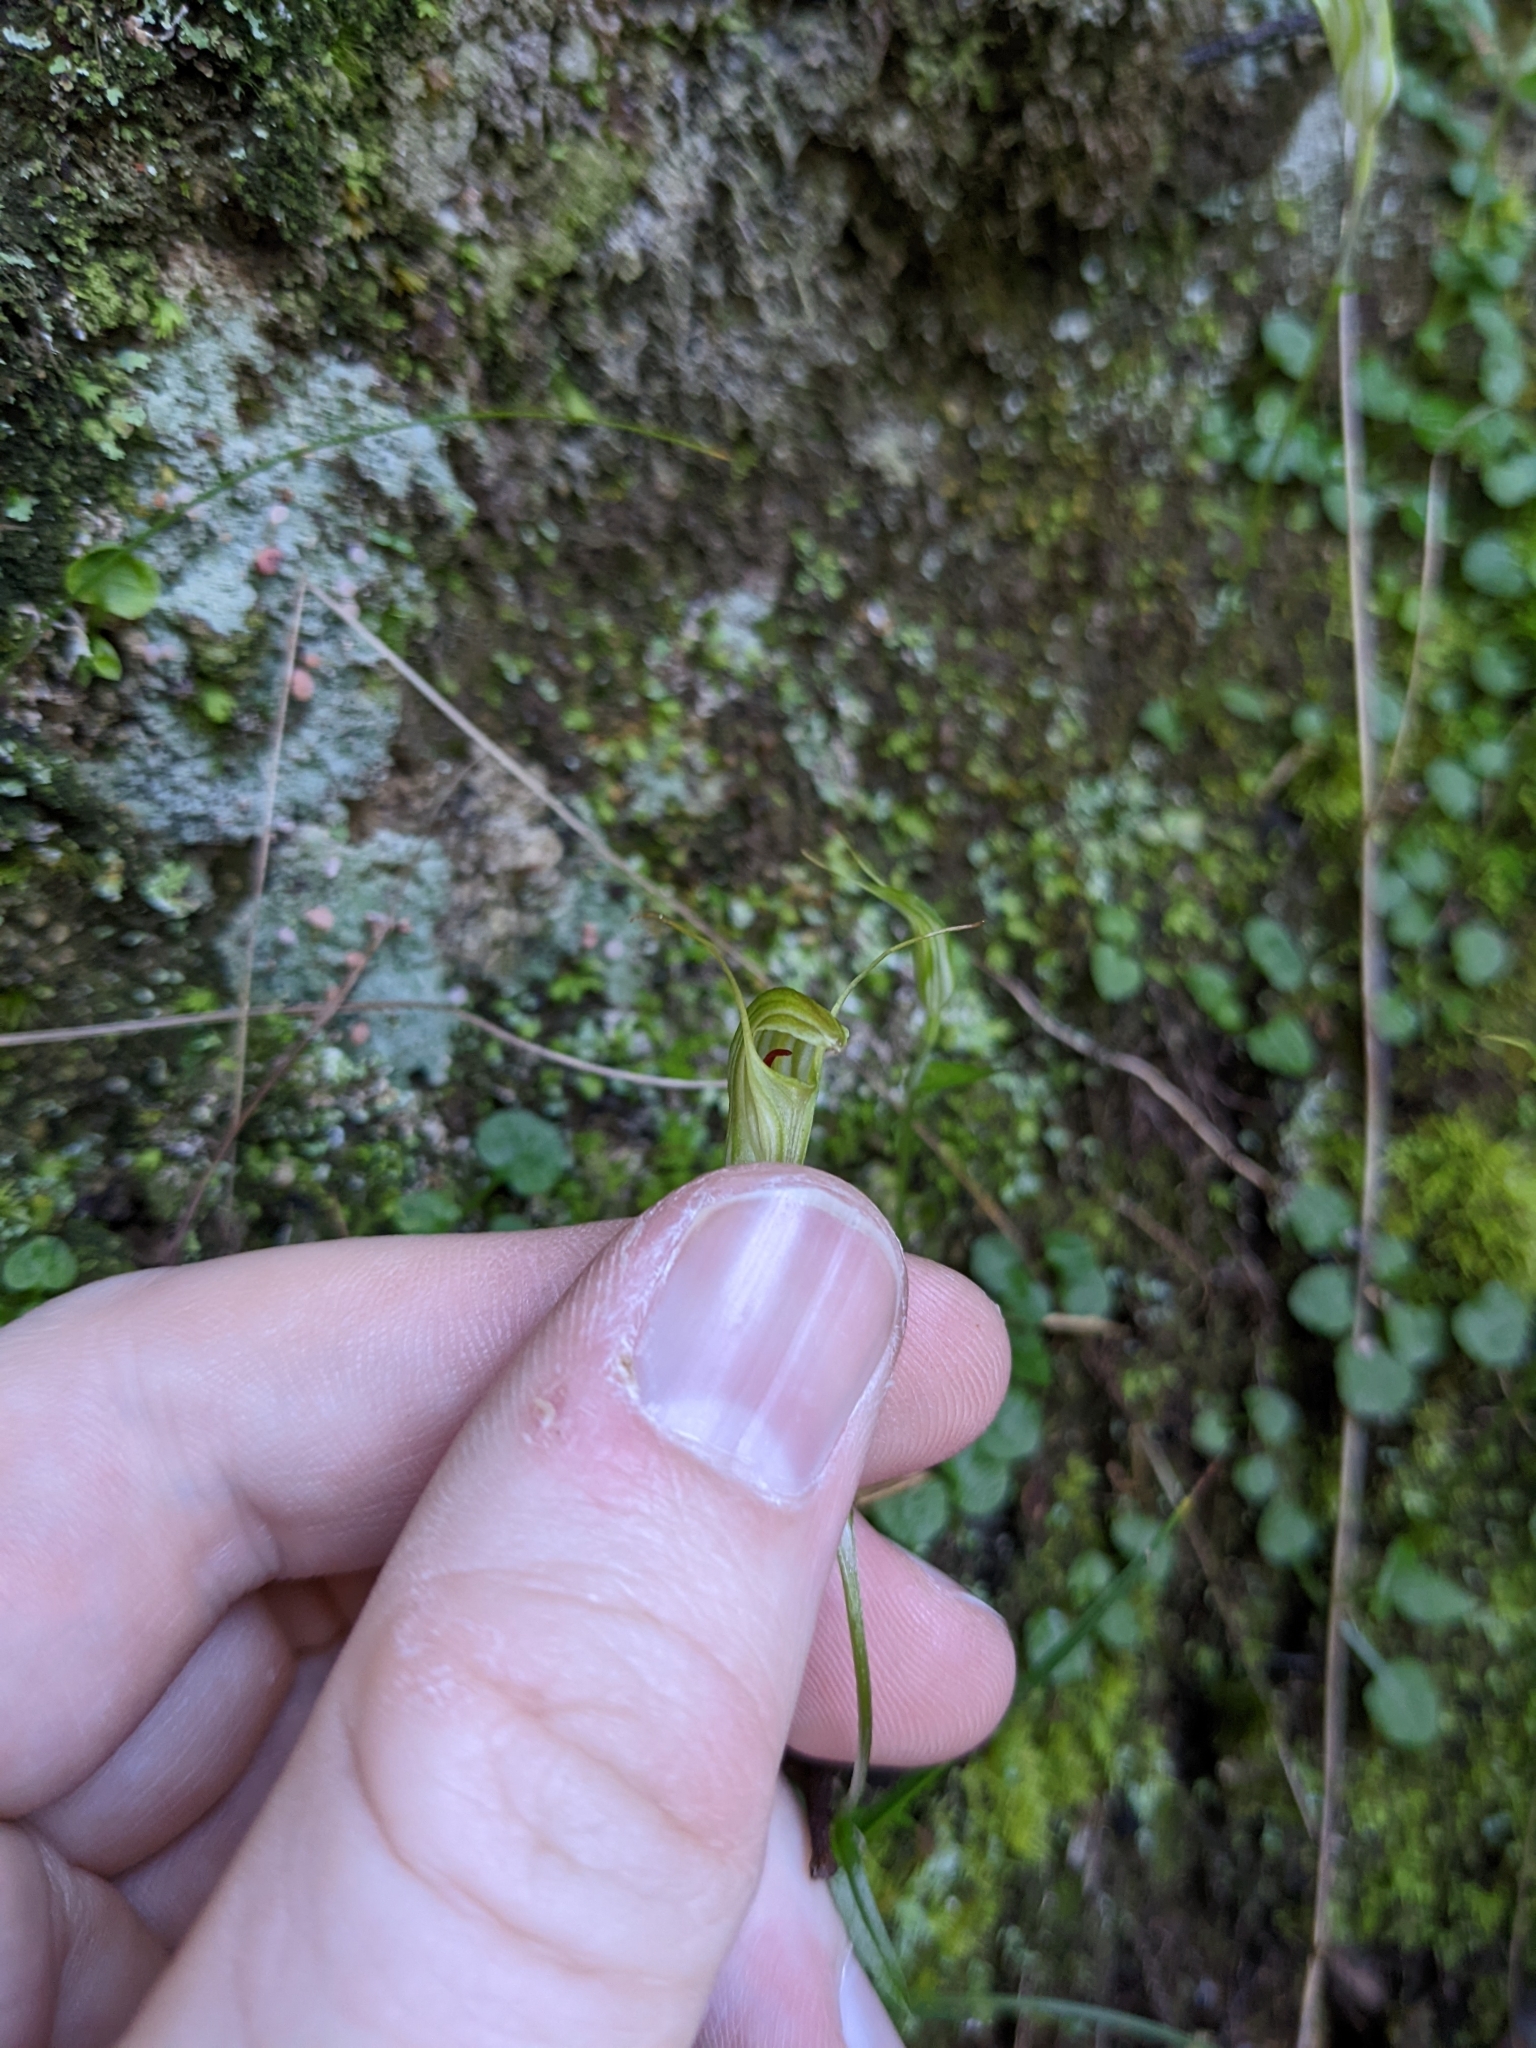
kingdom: Plantae
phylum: Tracheophyta
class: Liliopsida
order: Asparagales
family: Orchidaceae
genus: Pterostylis
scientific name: Pterostylis trullifolia
